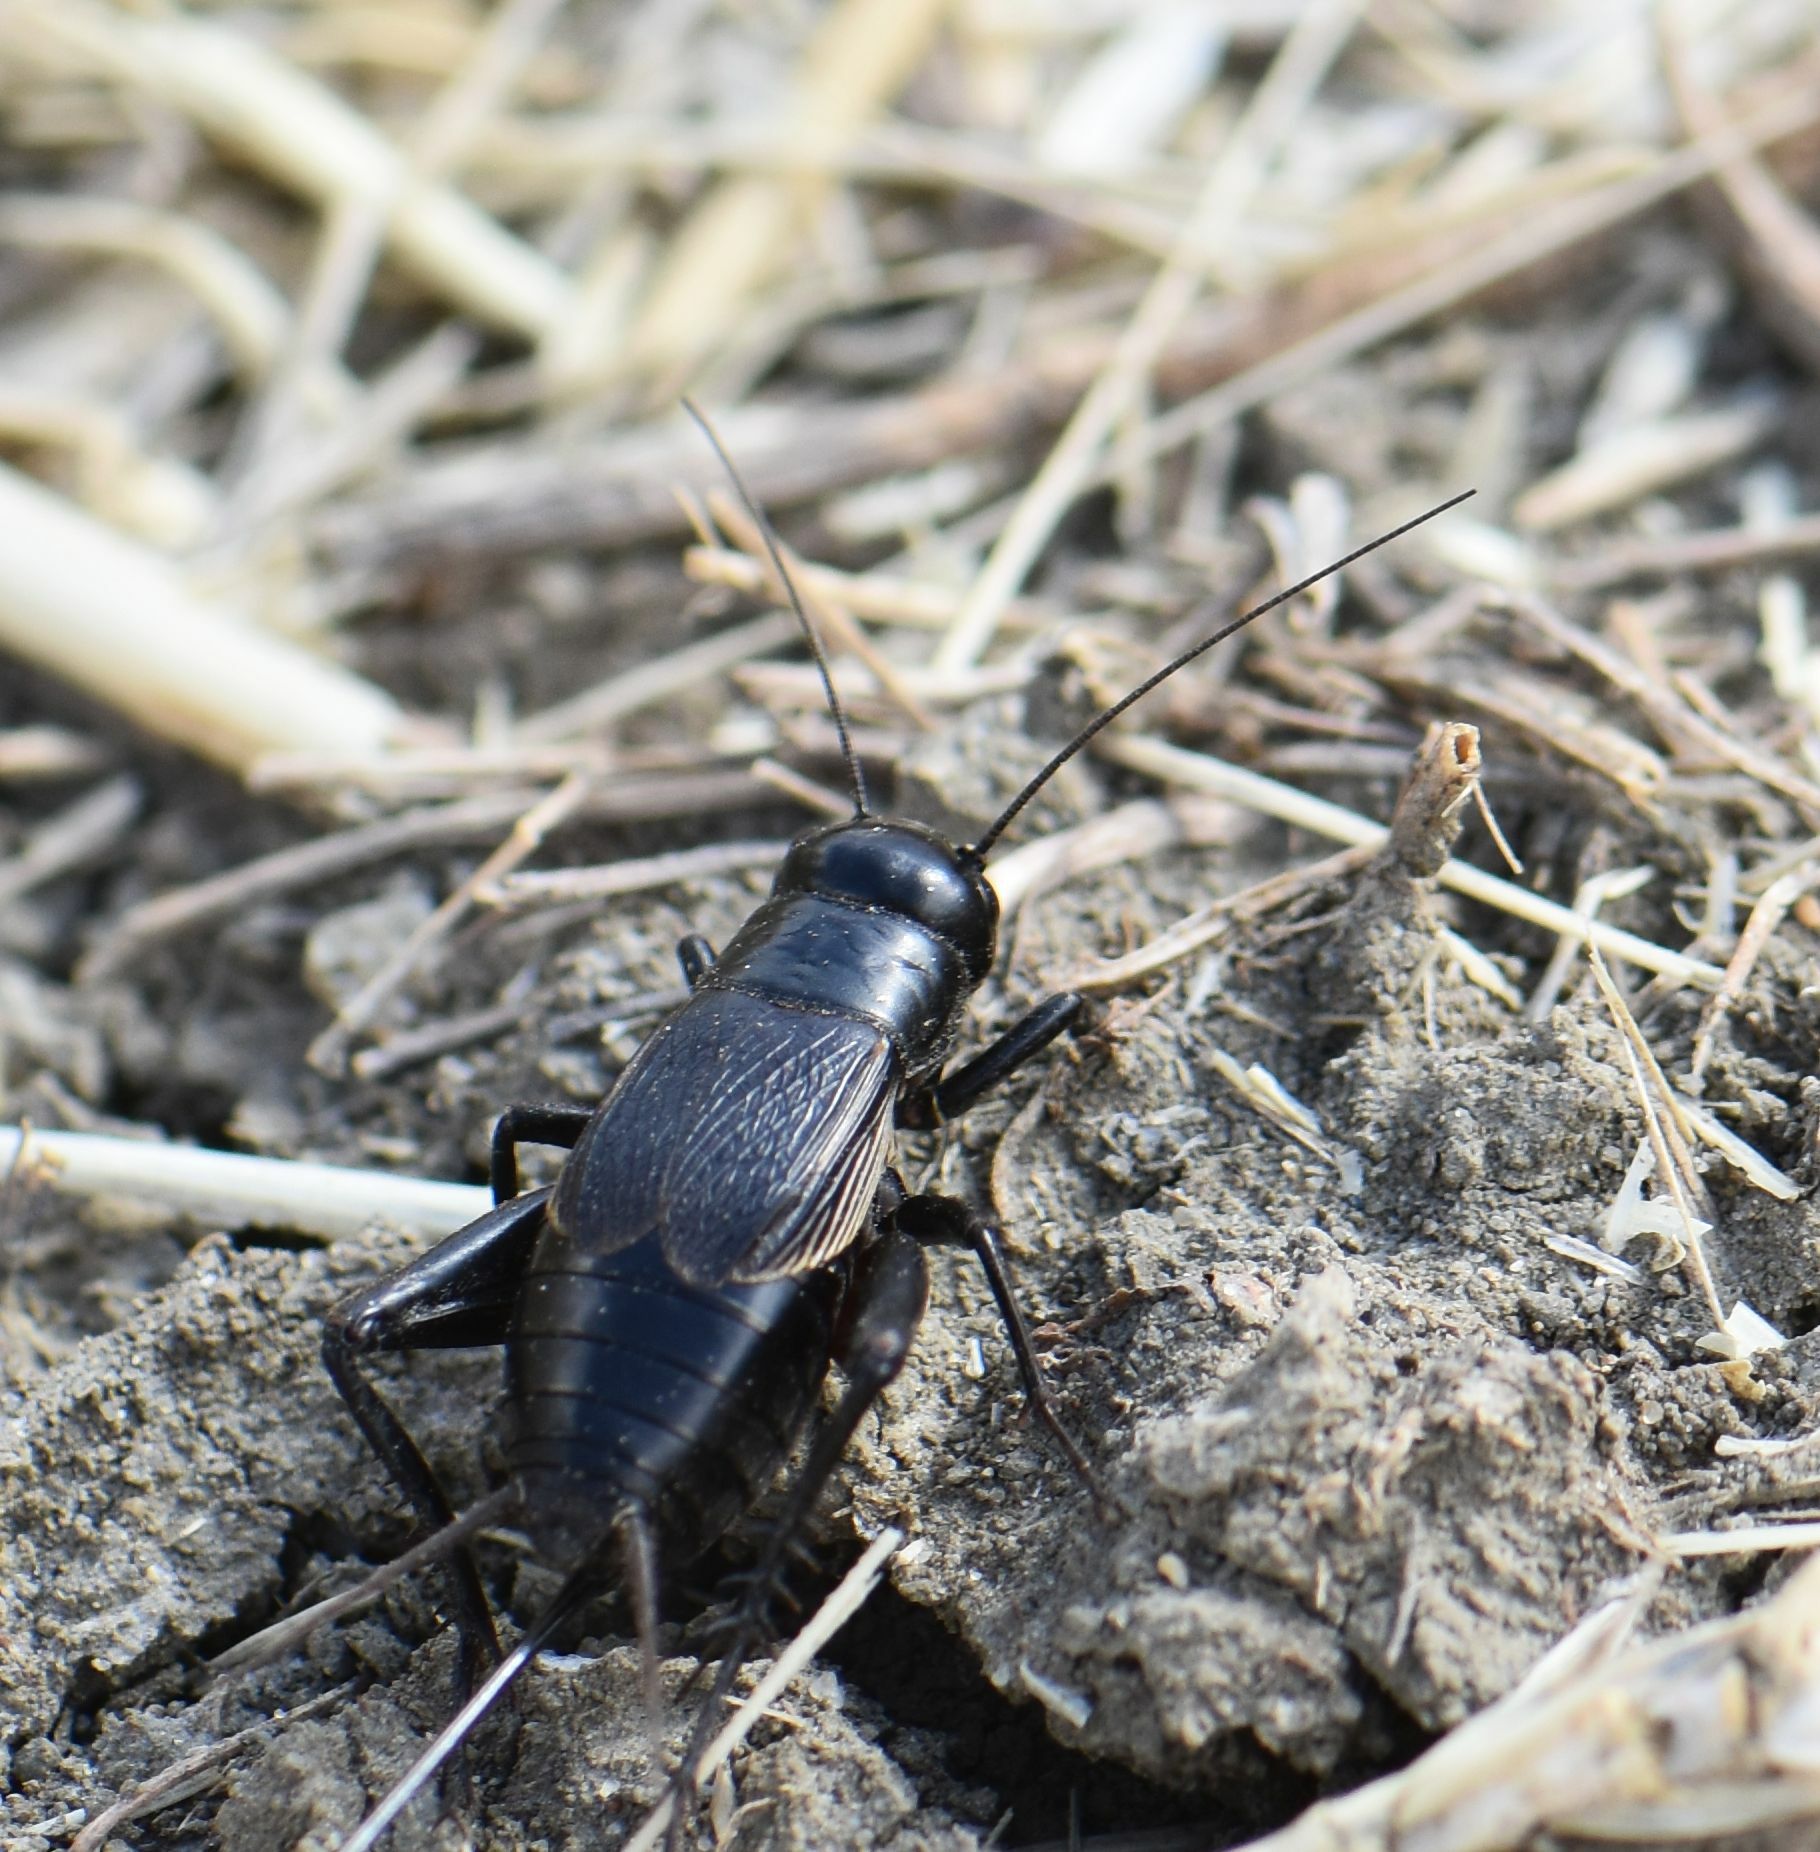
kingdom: Animalia
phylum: Arthropoda
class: Insecta
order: Orthoptera
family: Gryllidae
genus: Gryllus
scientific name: Gryllus pennsylvanicus
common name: Fall field cricket
